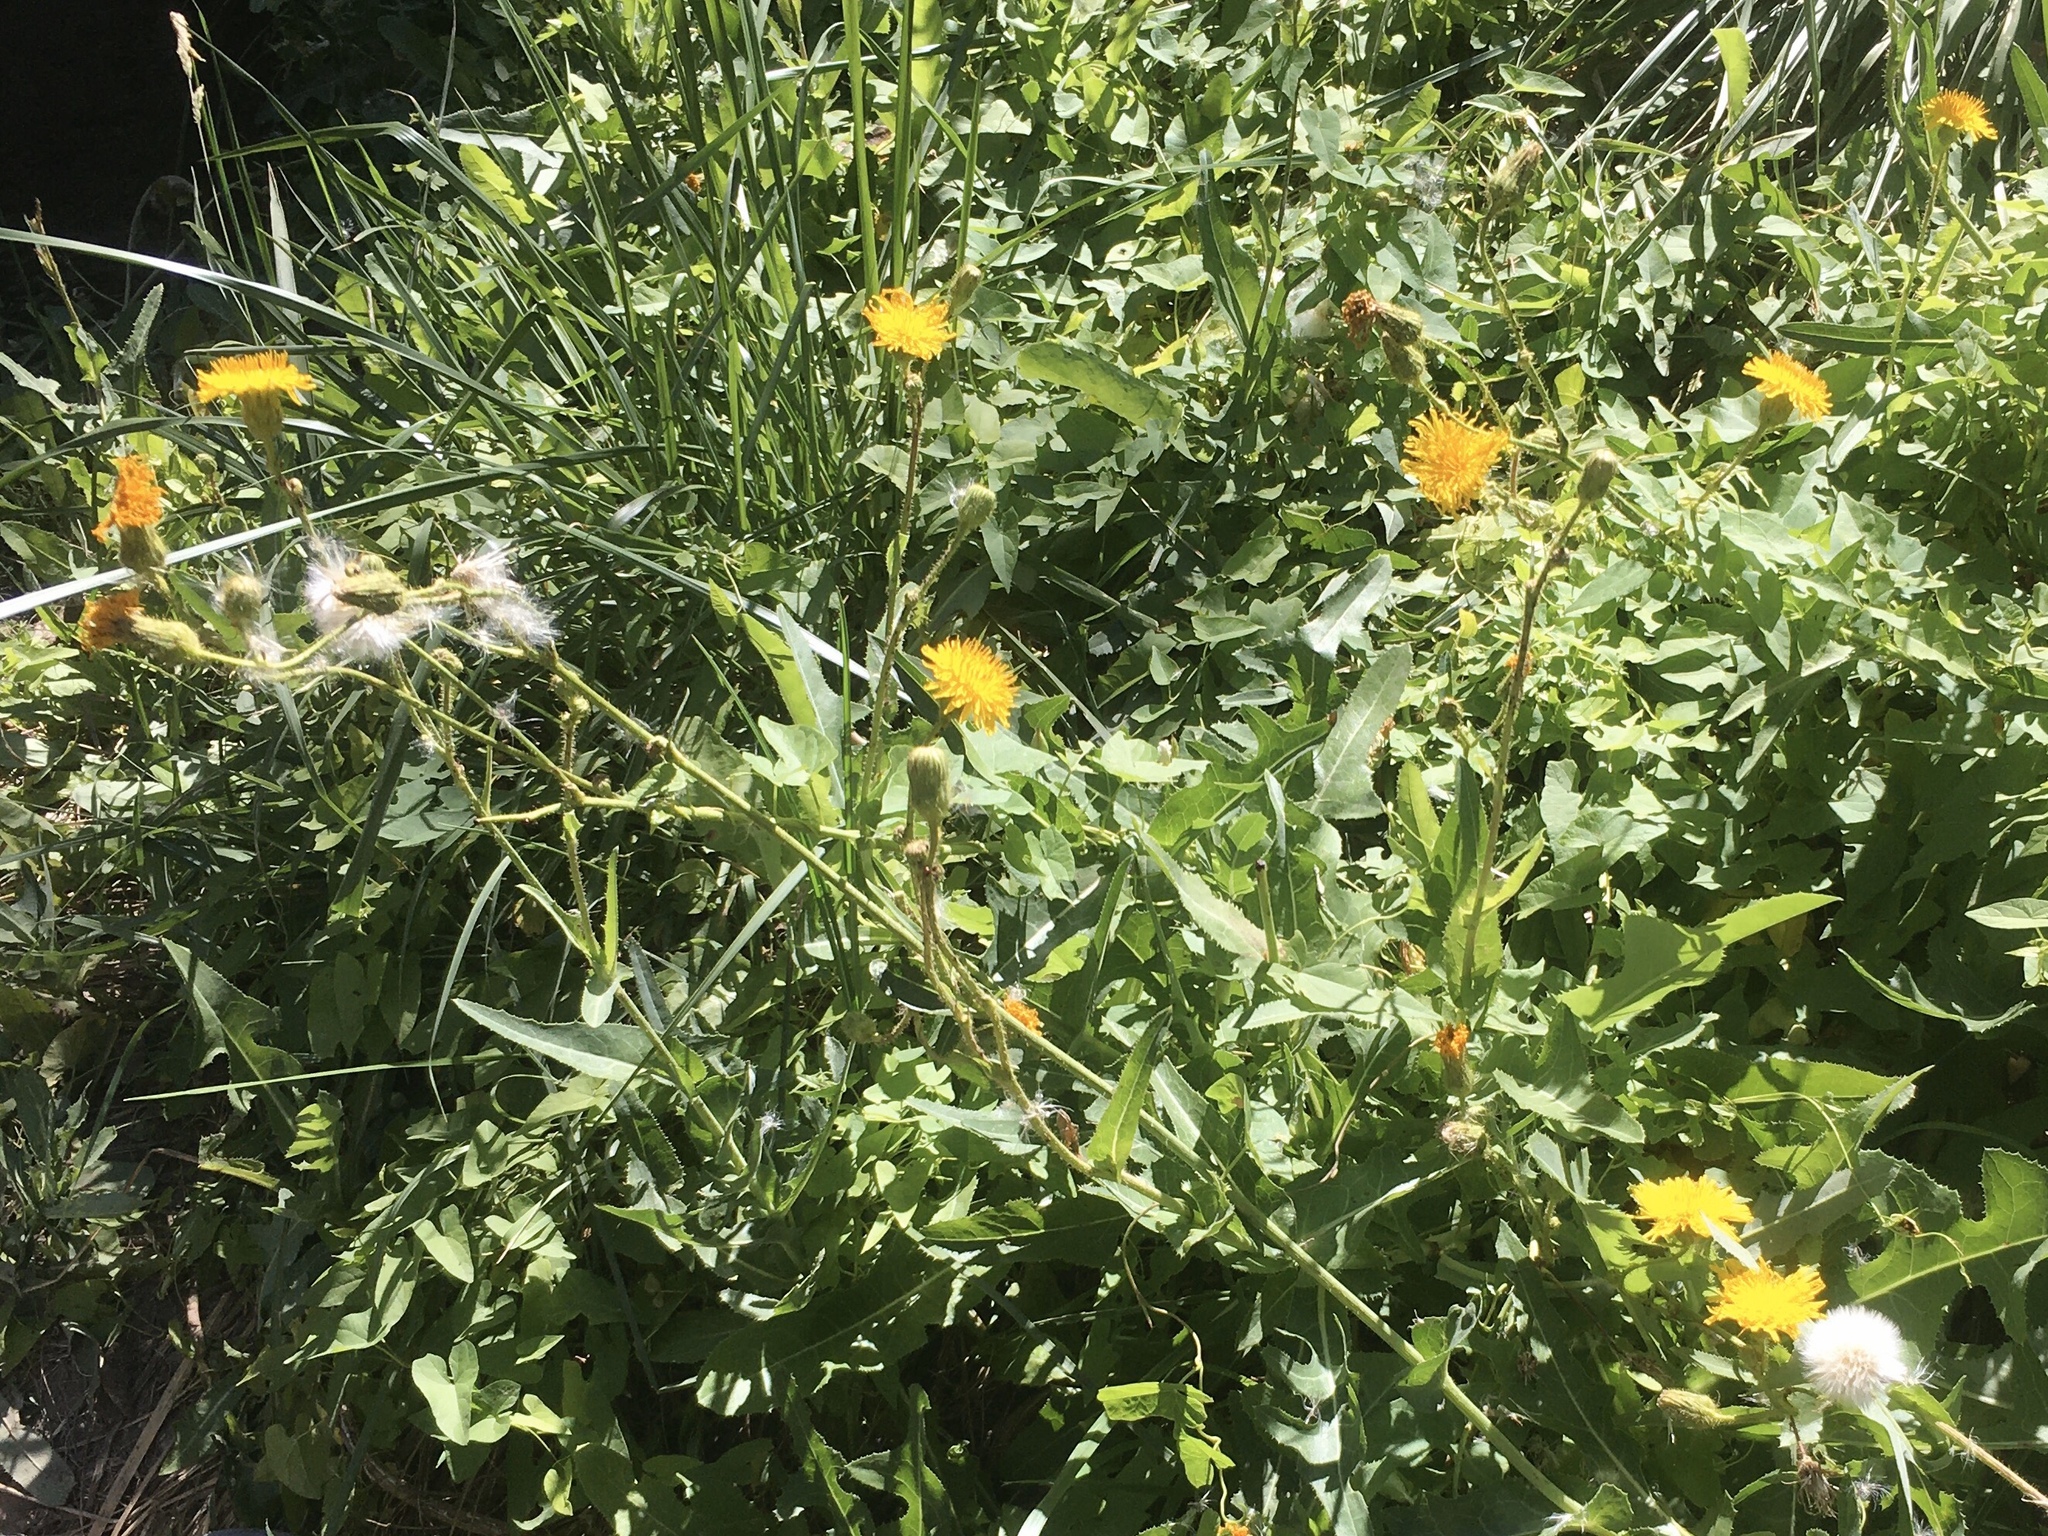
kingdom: Plantae
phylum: Tracheophyta
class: Magnoliopsida
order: Asterales
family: Asteraceae
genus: Sonchus
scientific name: Sonchus arvensis
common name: Perennial sow-thistle
